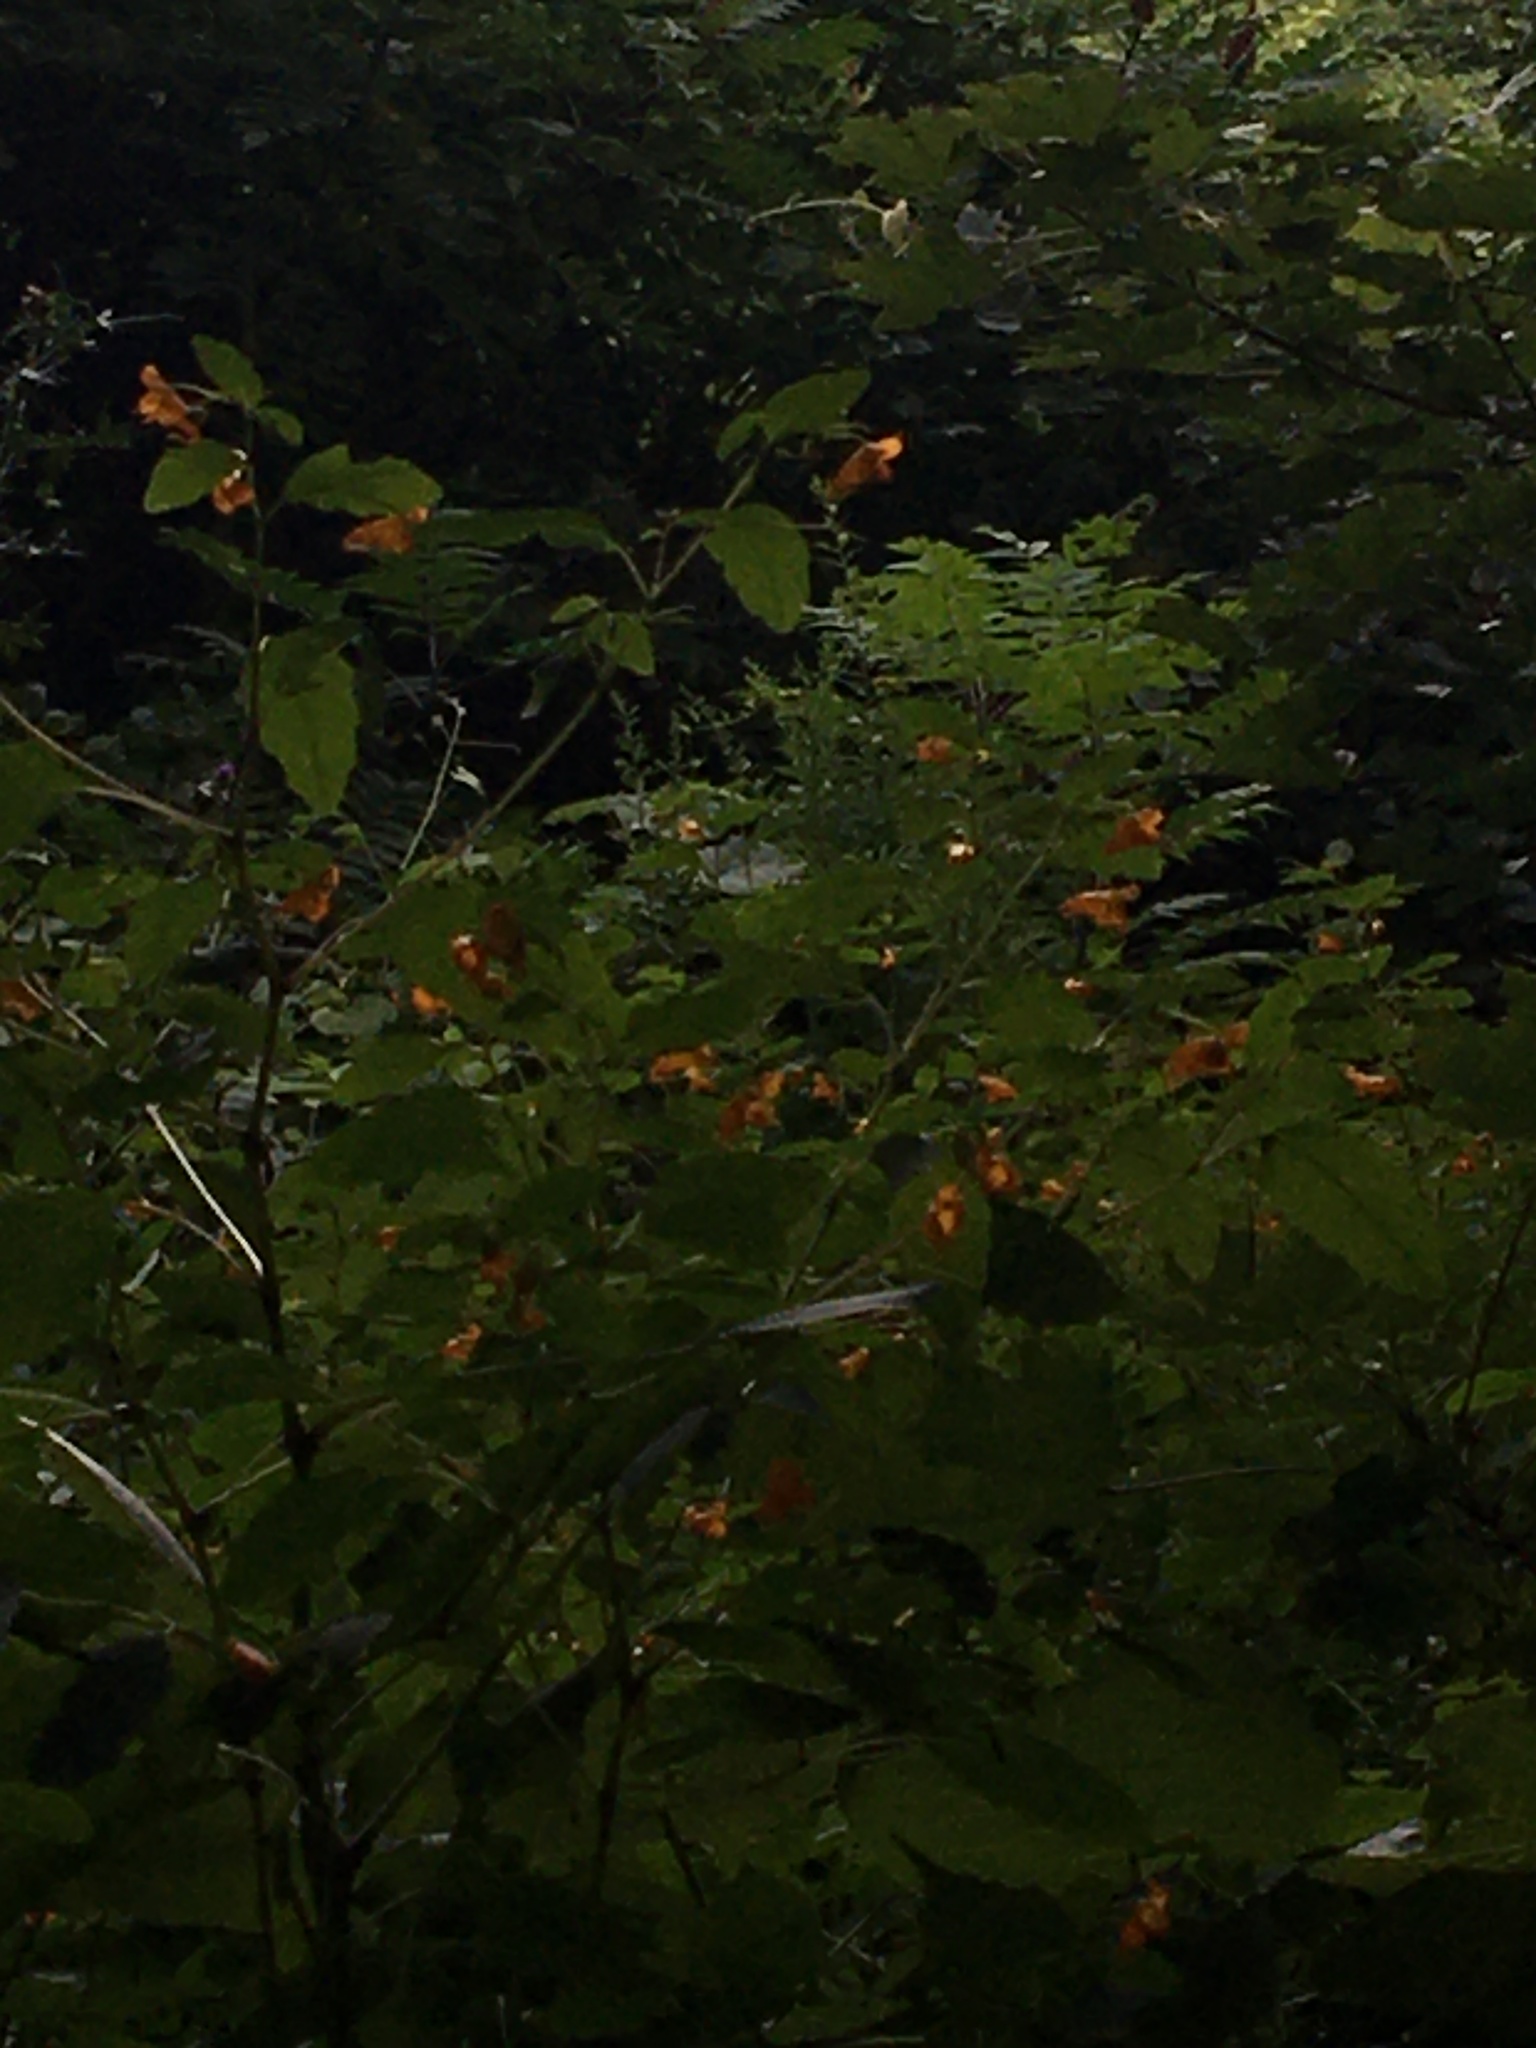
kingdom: Plantae
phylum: Tracheophyta
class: Magnoliopsida
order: Ericales
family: Balsaminaceae
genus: Impatiens
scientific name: Impatiens capensis
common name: Orange balsam
